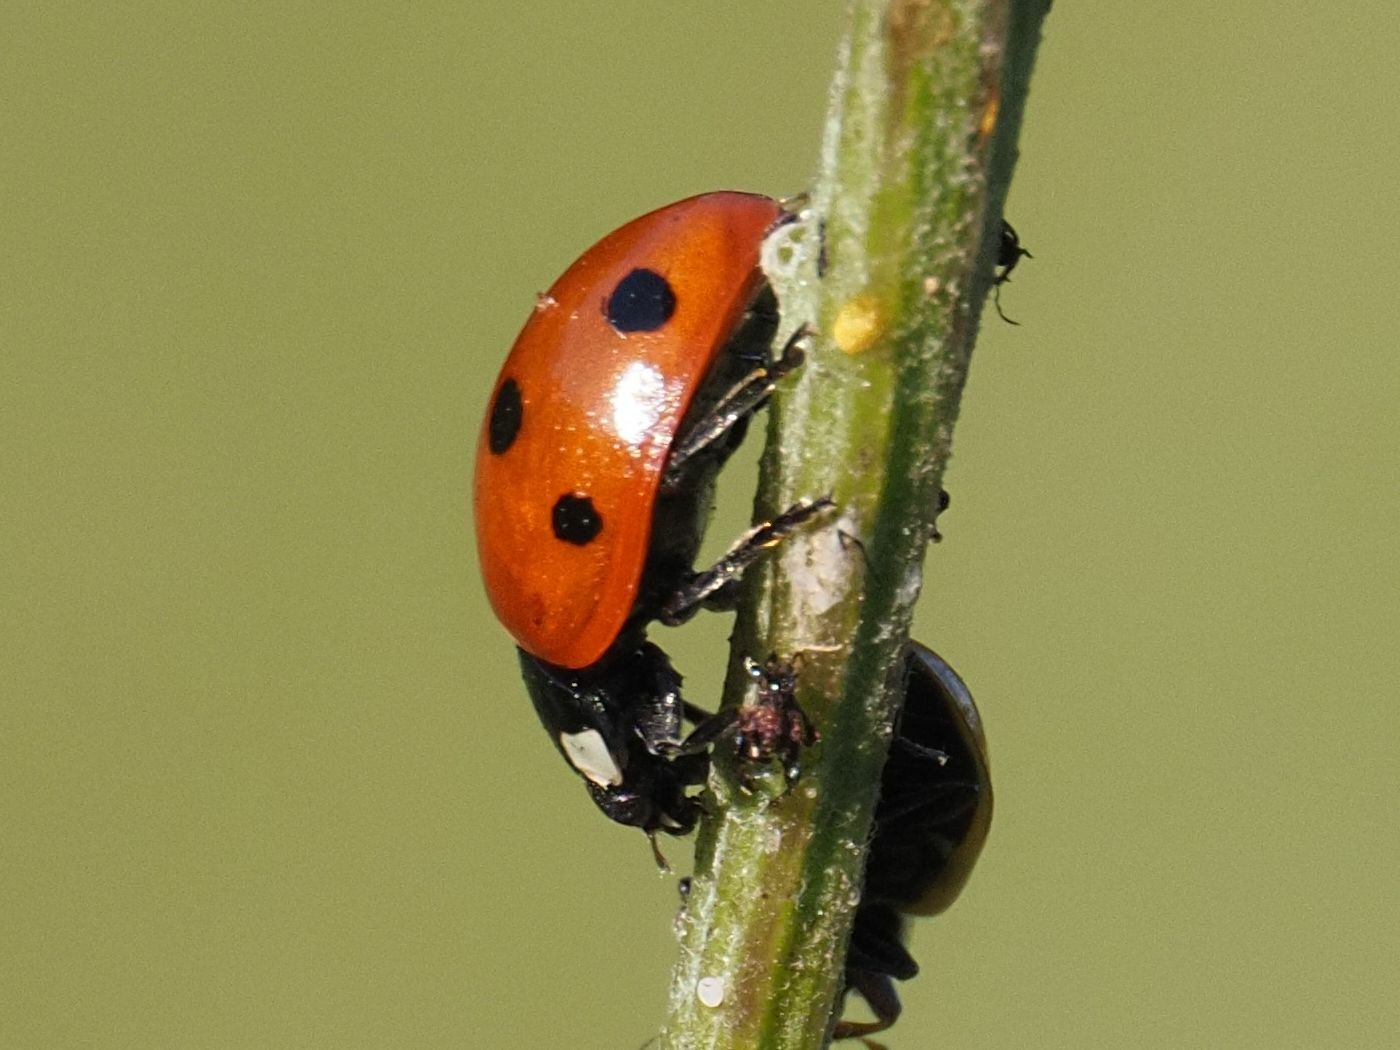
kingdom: Animalia
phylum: Arthropoda
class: Insecta
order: Coleoptera
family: Coccinellidae
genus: Coccinella
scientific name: Coccinella septempunctata
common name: Sevenspotted lady beetle
